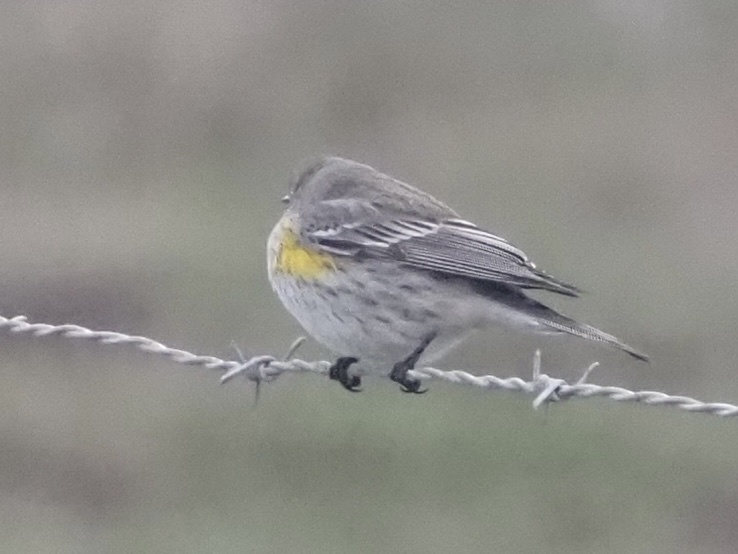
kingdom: Animalia
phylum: Chordata
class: Aves
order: Passeriformes
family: Parulidae
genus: Setophaga
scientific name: Setophaga auduboni
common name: Audubon's warbler
